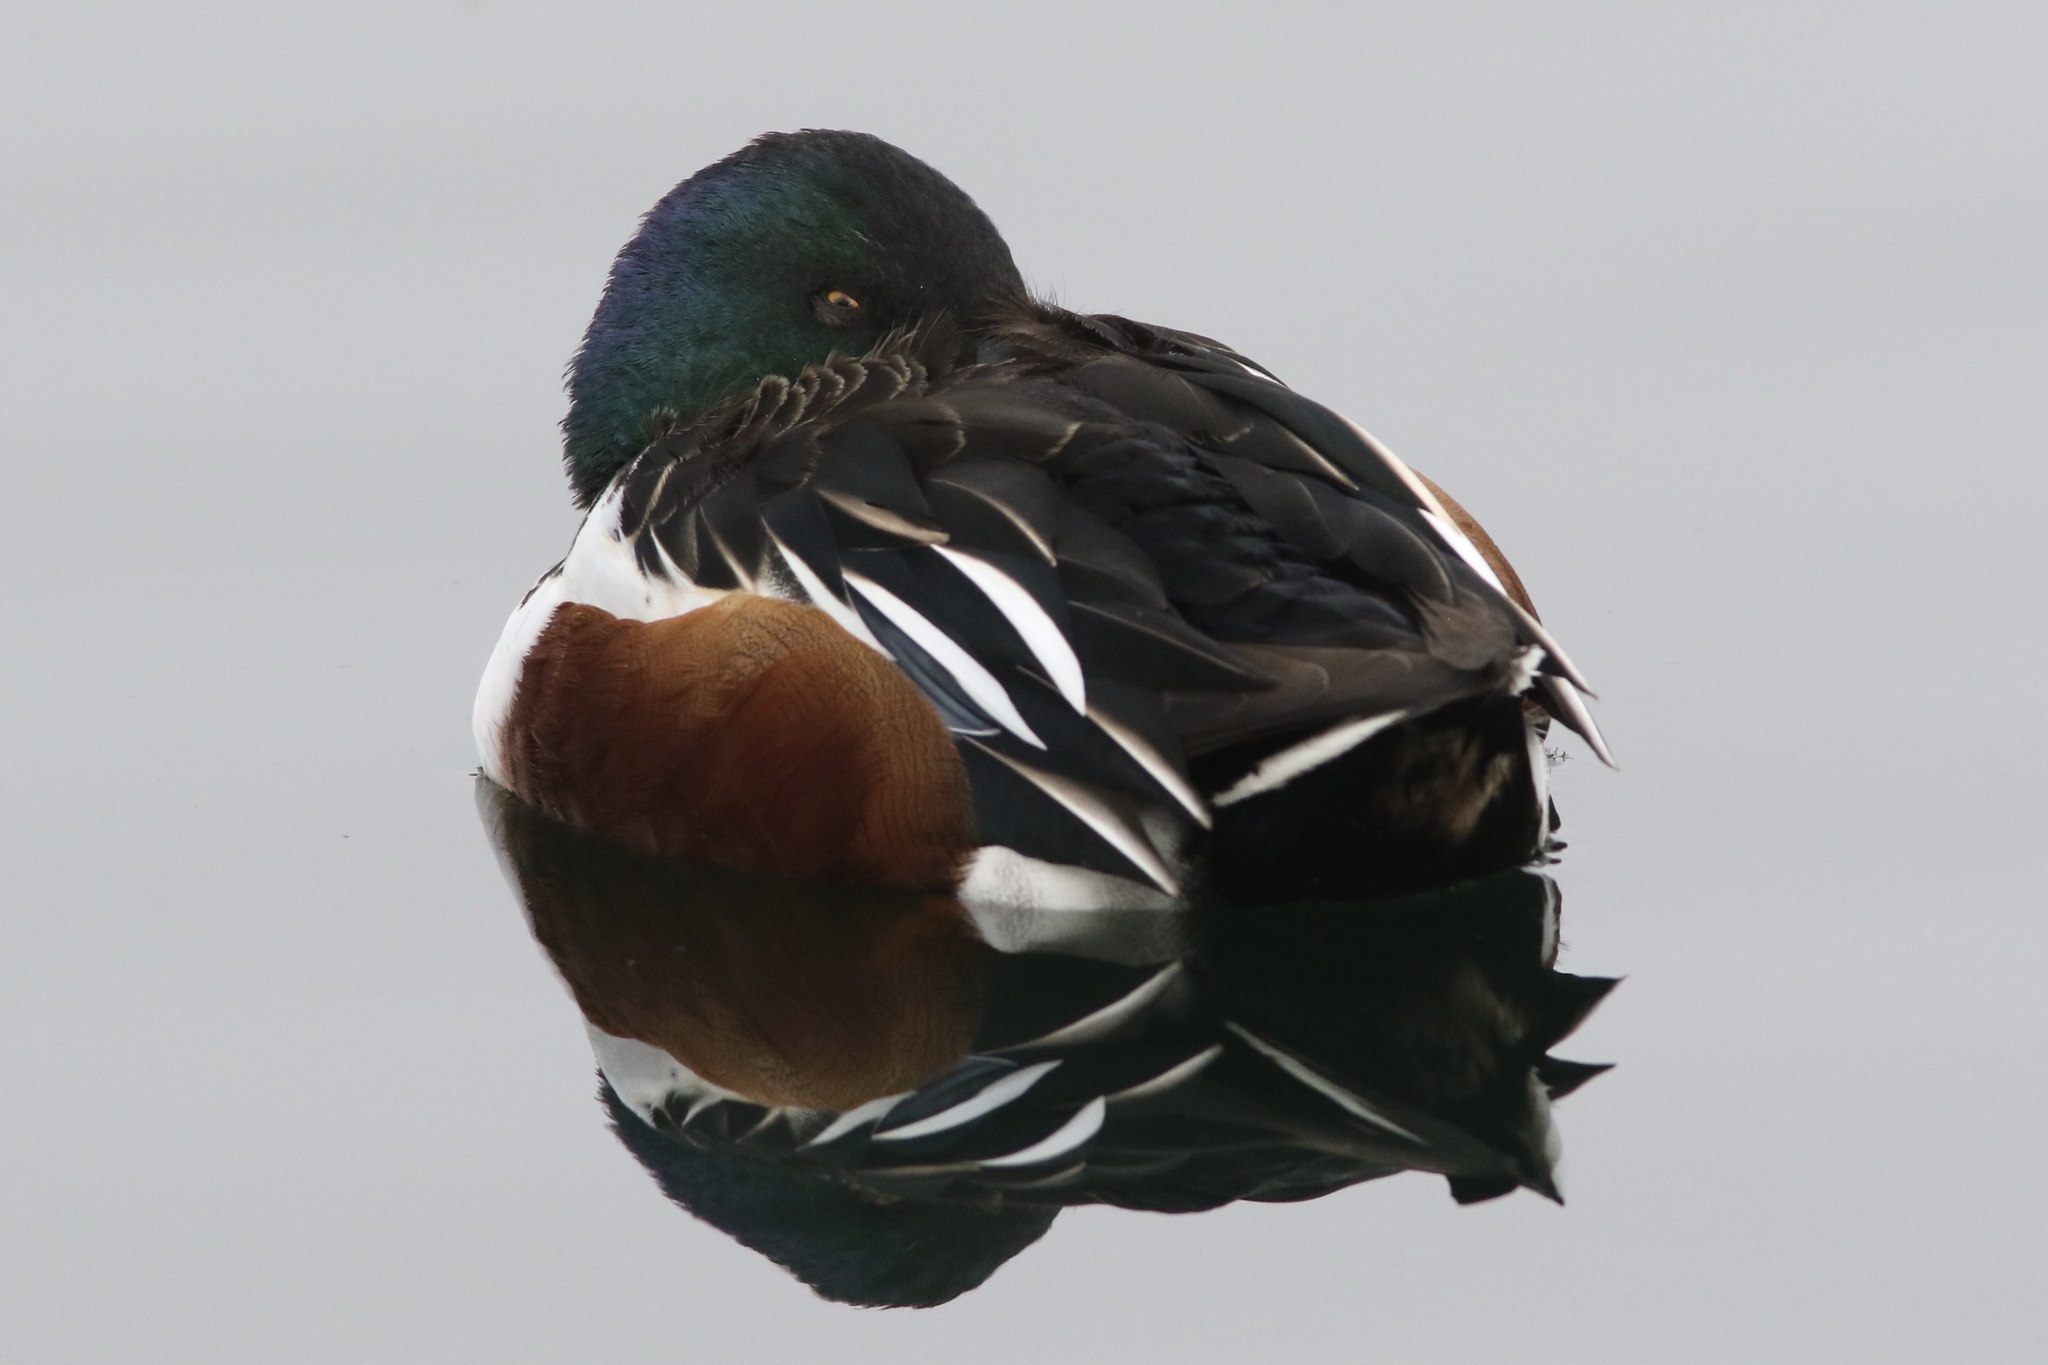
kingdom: Animalia
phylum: Chordata
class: Aves
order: Anseriformes
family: Anatidae
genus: Spatula
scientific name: Spatula clypeata
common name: Northern shoveler
